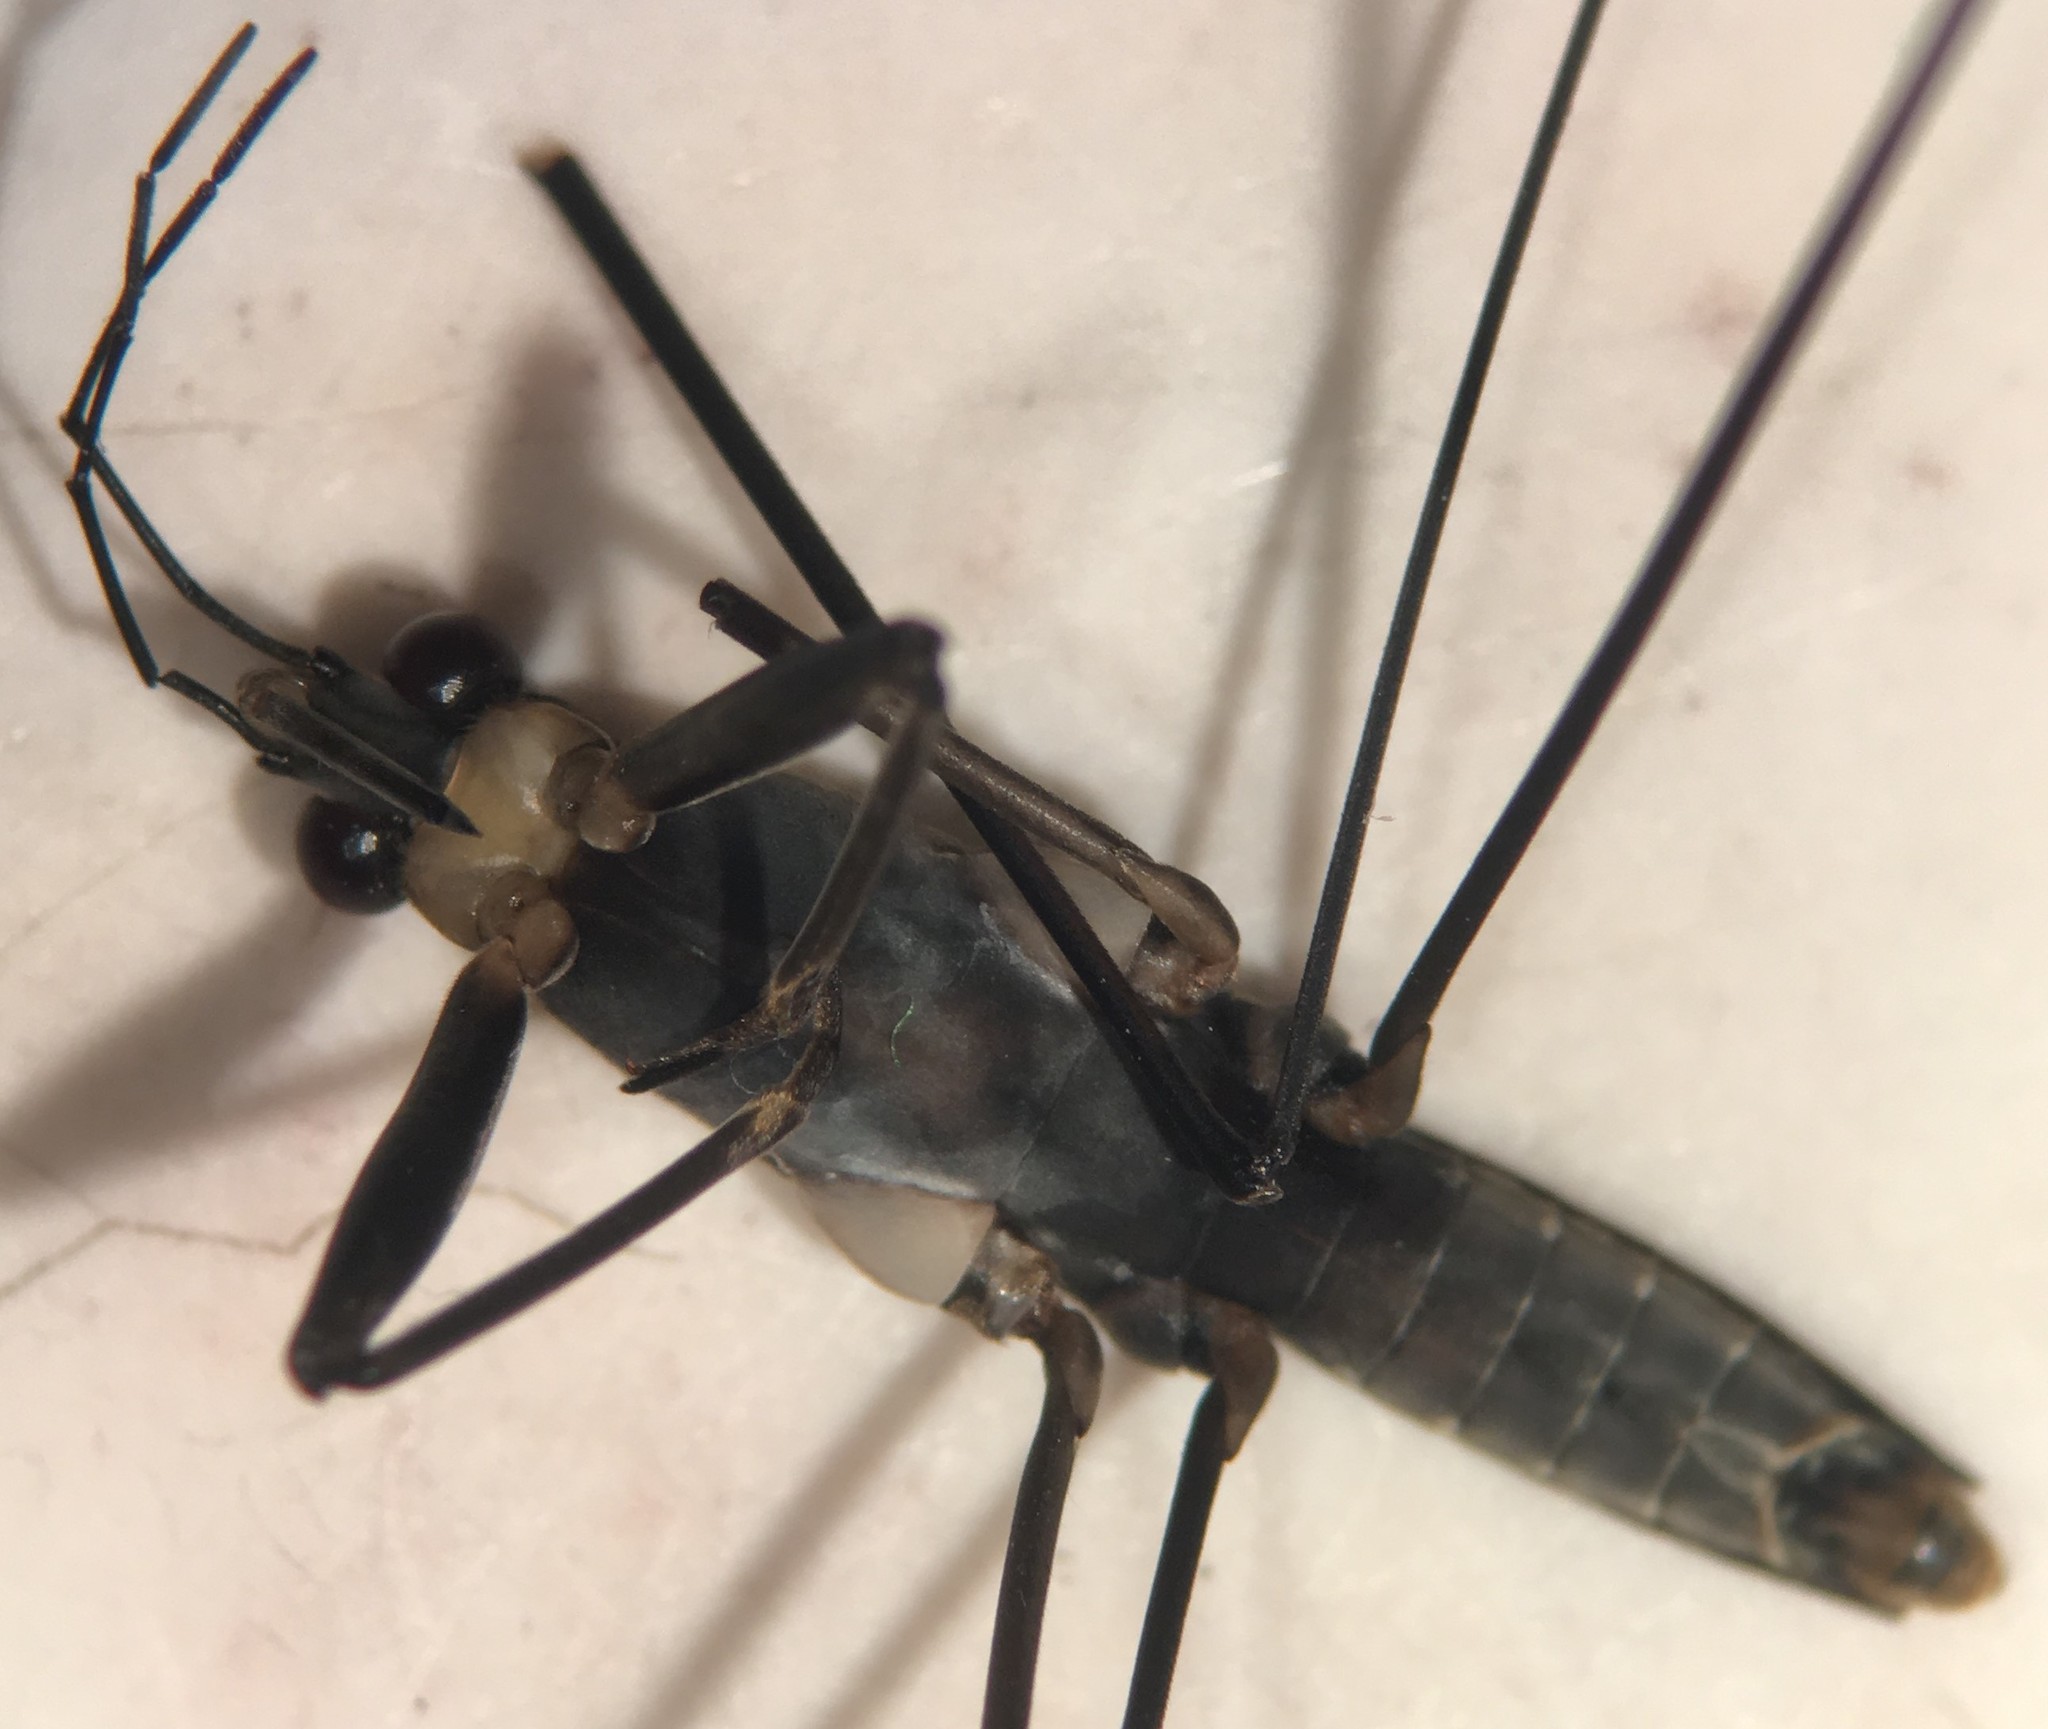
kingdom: Animalia
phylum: Arthropoda
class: Insecta
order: Hemiptera
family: Gerridae
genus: Aquarius
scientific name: Aquarius nebularis
